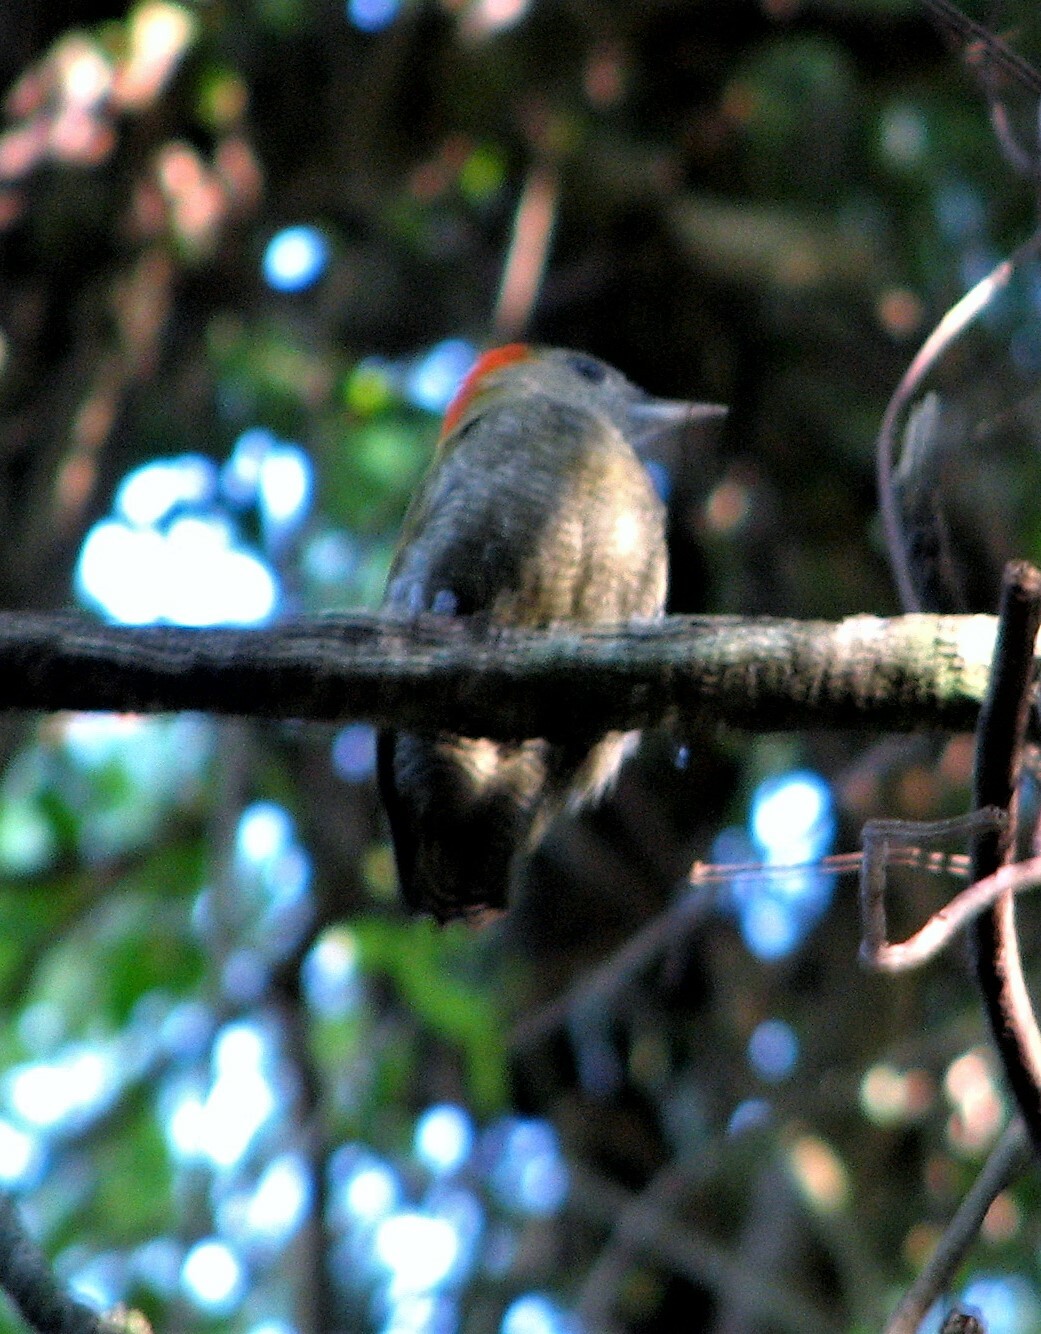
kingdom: Animalia
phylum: Chordata
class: Aves
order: Piciformes
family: Picidae
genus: Veniliornis
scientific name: Veniliornis passerinus
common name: Little woodpecker
